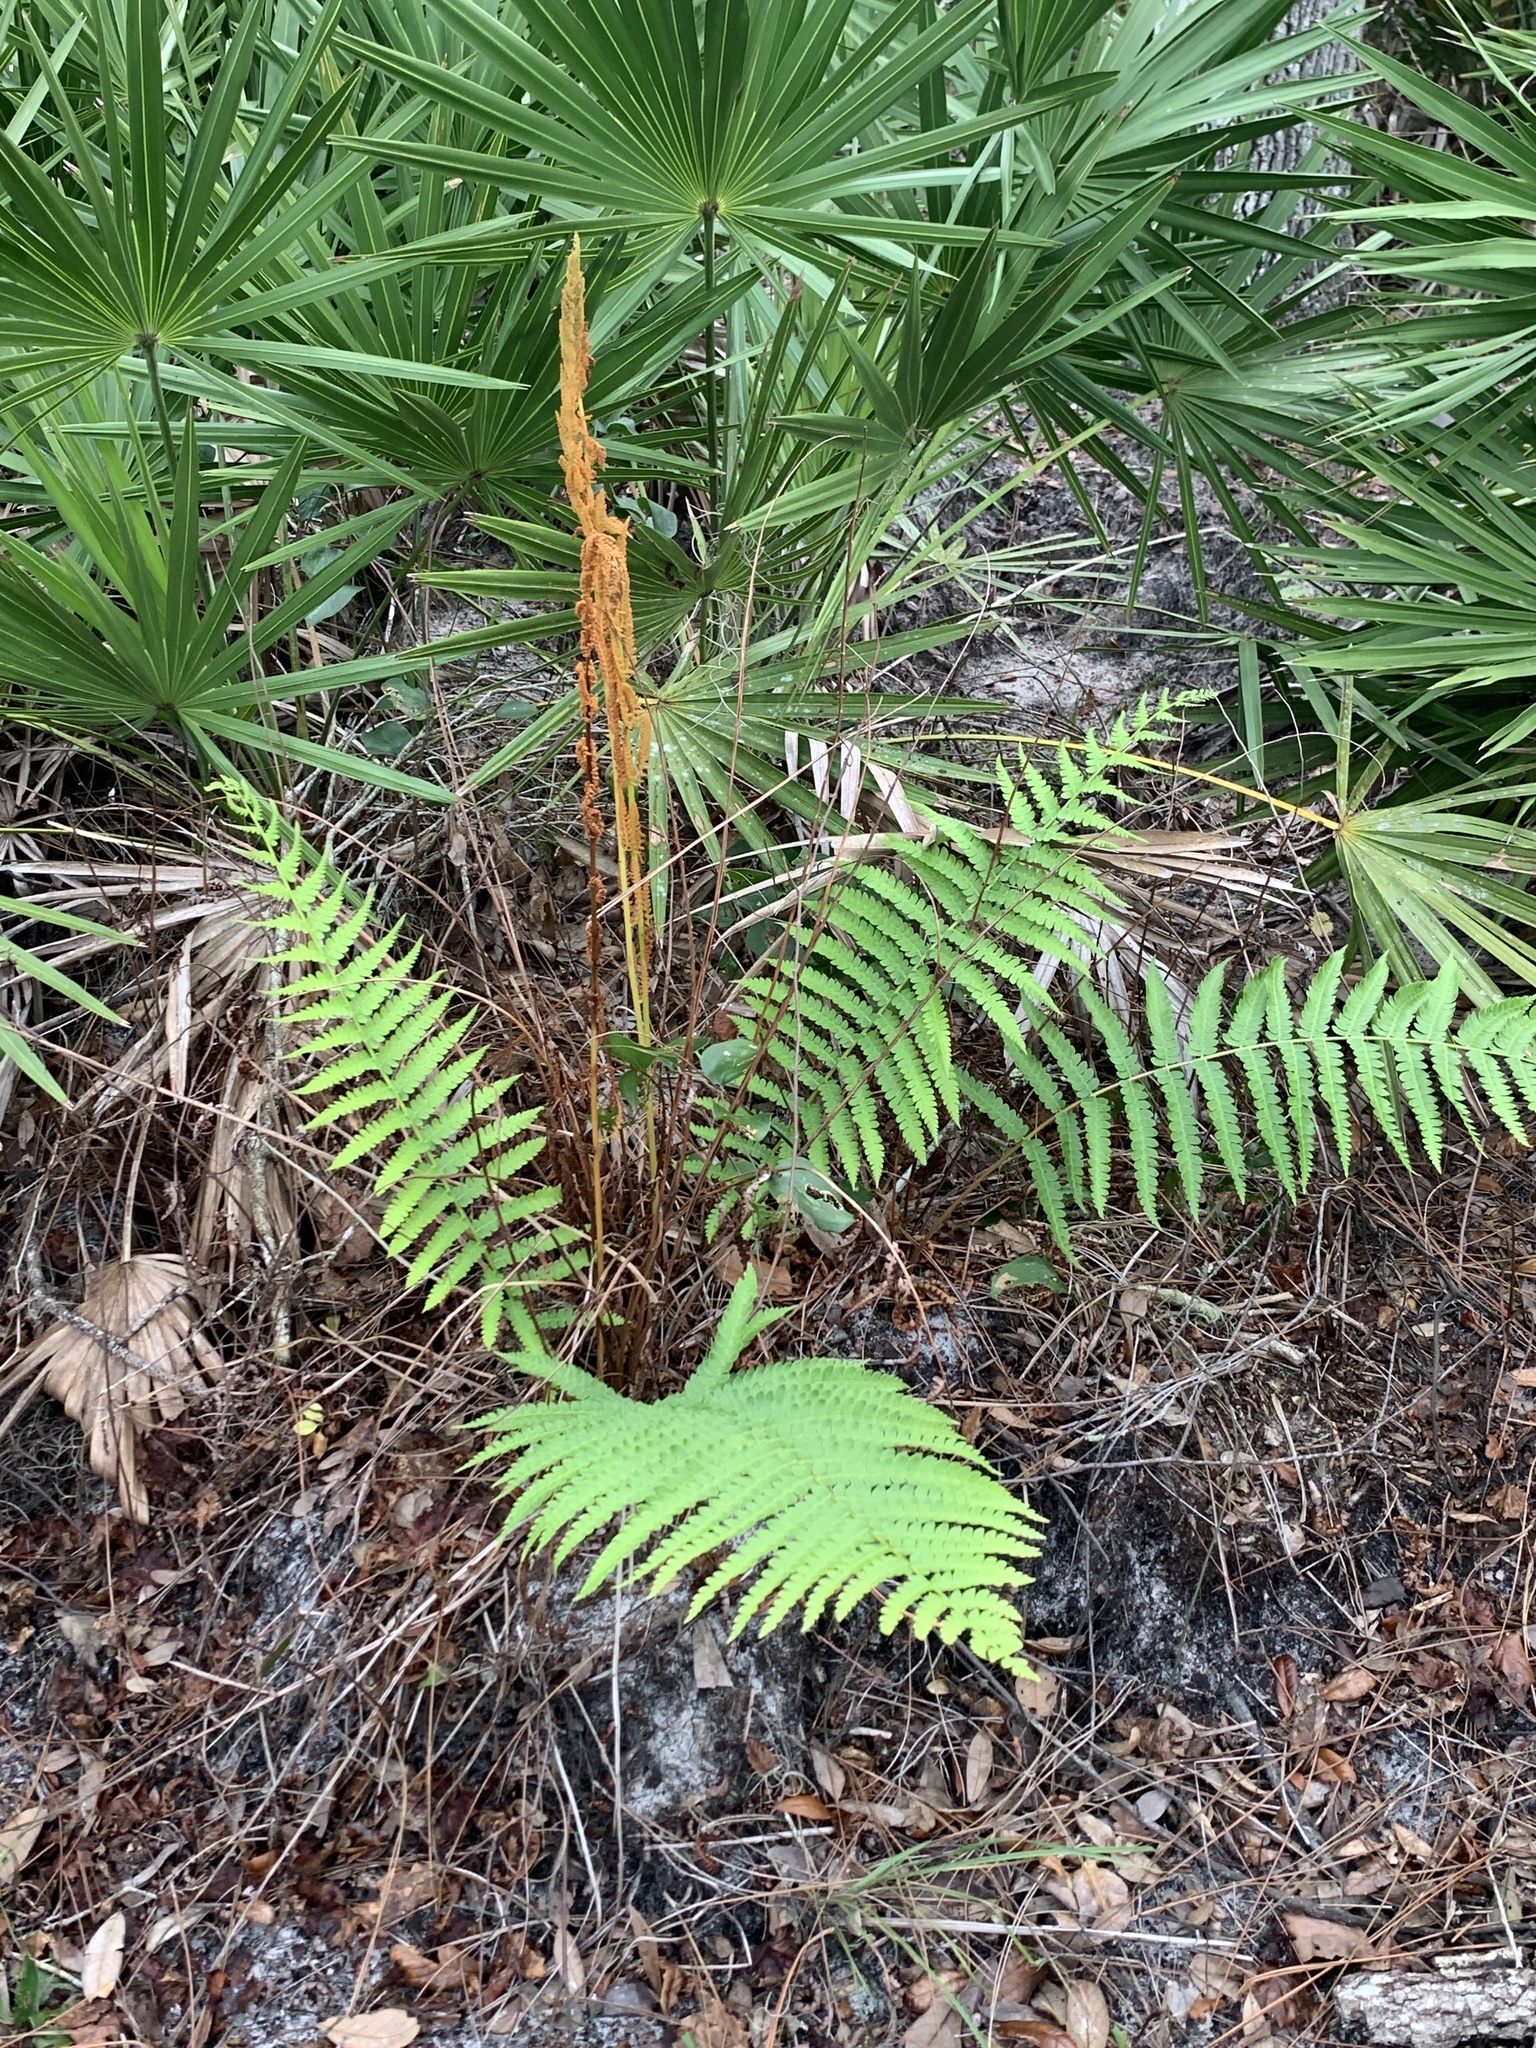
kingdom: Plantae
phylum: Tracheophyta
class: Polypodiopsida
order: Osmundales
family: Osmundaceae
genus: Osmundastrum
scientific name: Osmundastrum cinnamomeum
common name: Cinnamon fern
